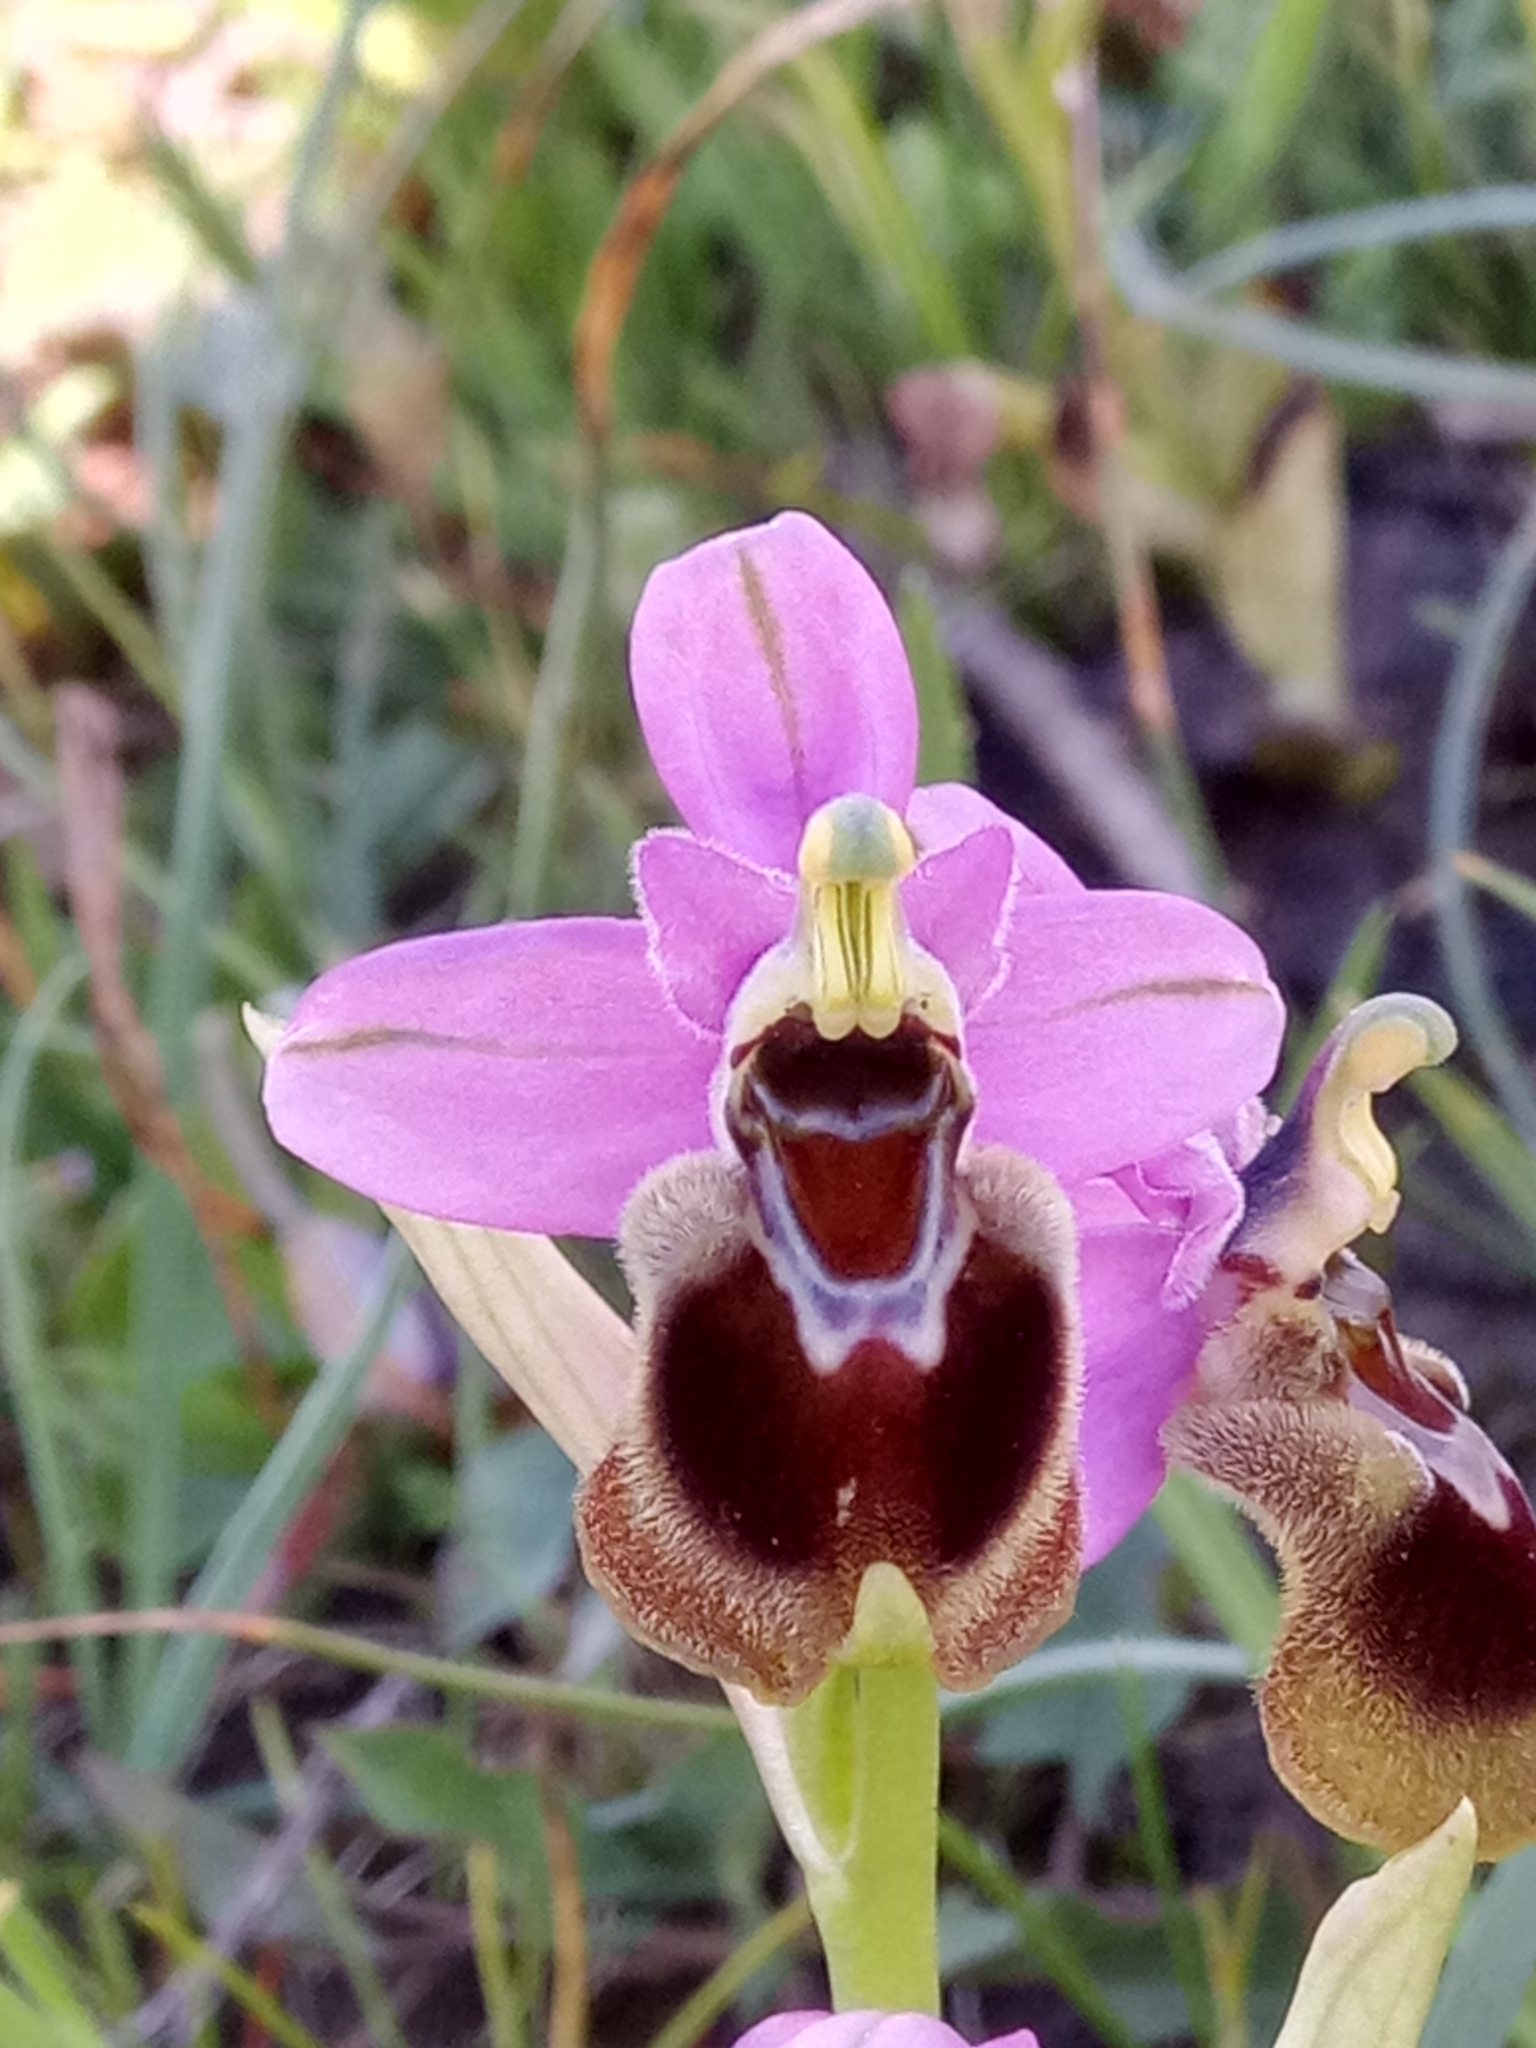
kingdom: Plantae
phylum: Tracheophyta
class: Liliopsida
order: Asparagales
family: Orchidaceae
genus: Ophrys
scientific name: Ophrys tenthredinifera
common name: Sawfly orchid
